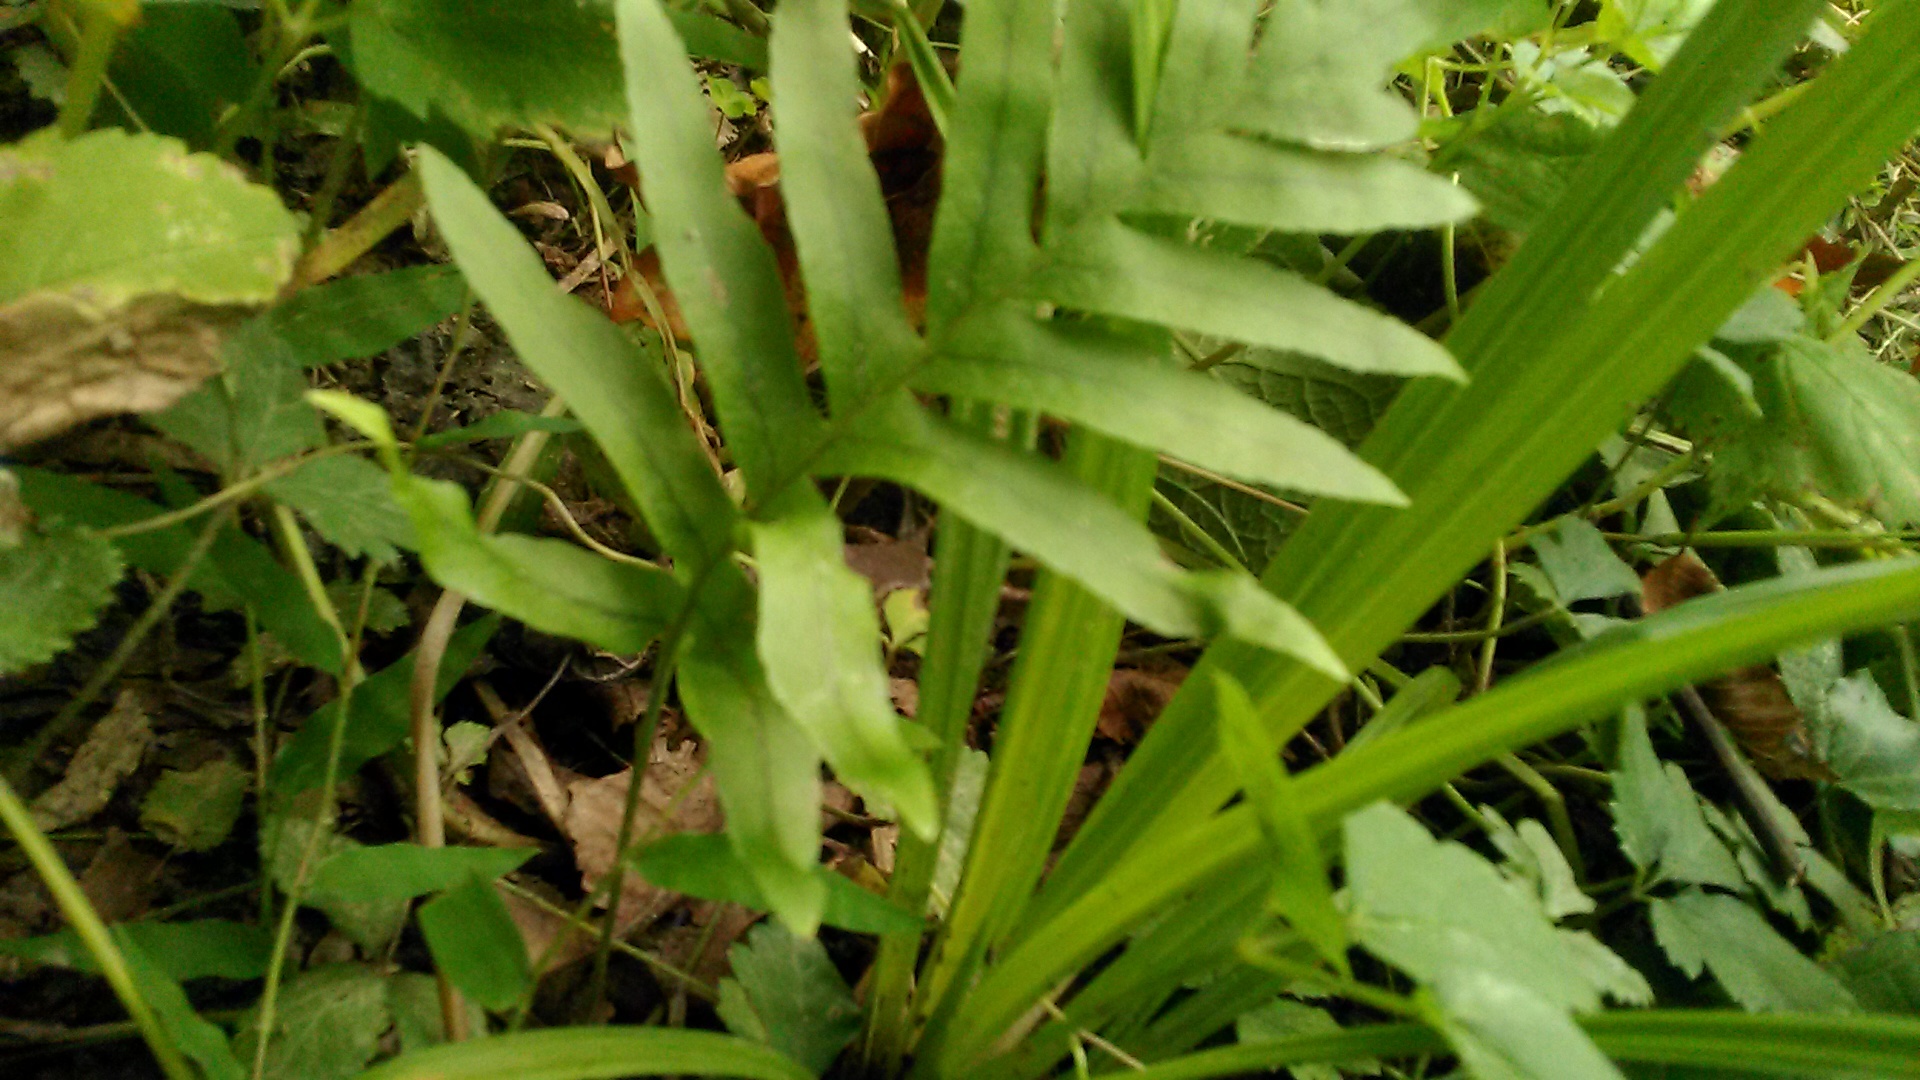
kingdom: Plantae
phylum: Tracheophyta
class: Polypodiopsida
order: Polypodiales
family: Polypodiaceae
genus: Polypodium
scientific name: Polypodium vulgare
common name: Common polypody
